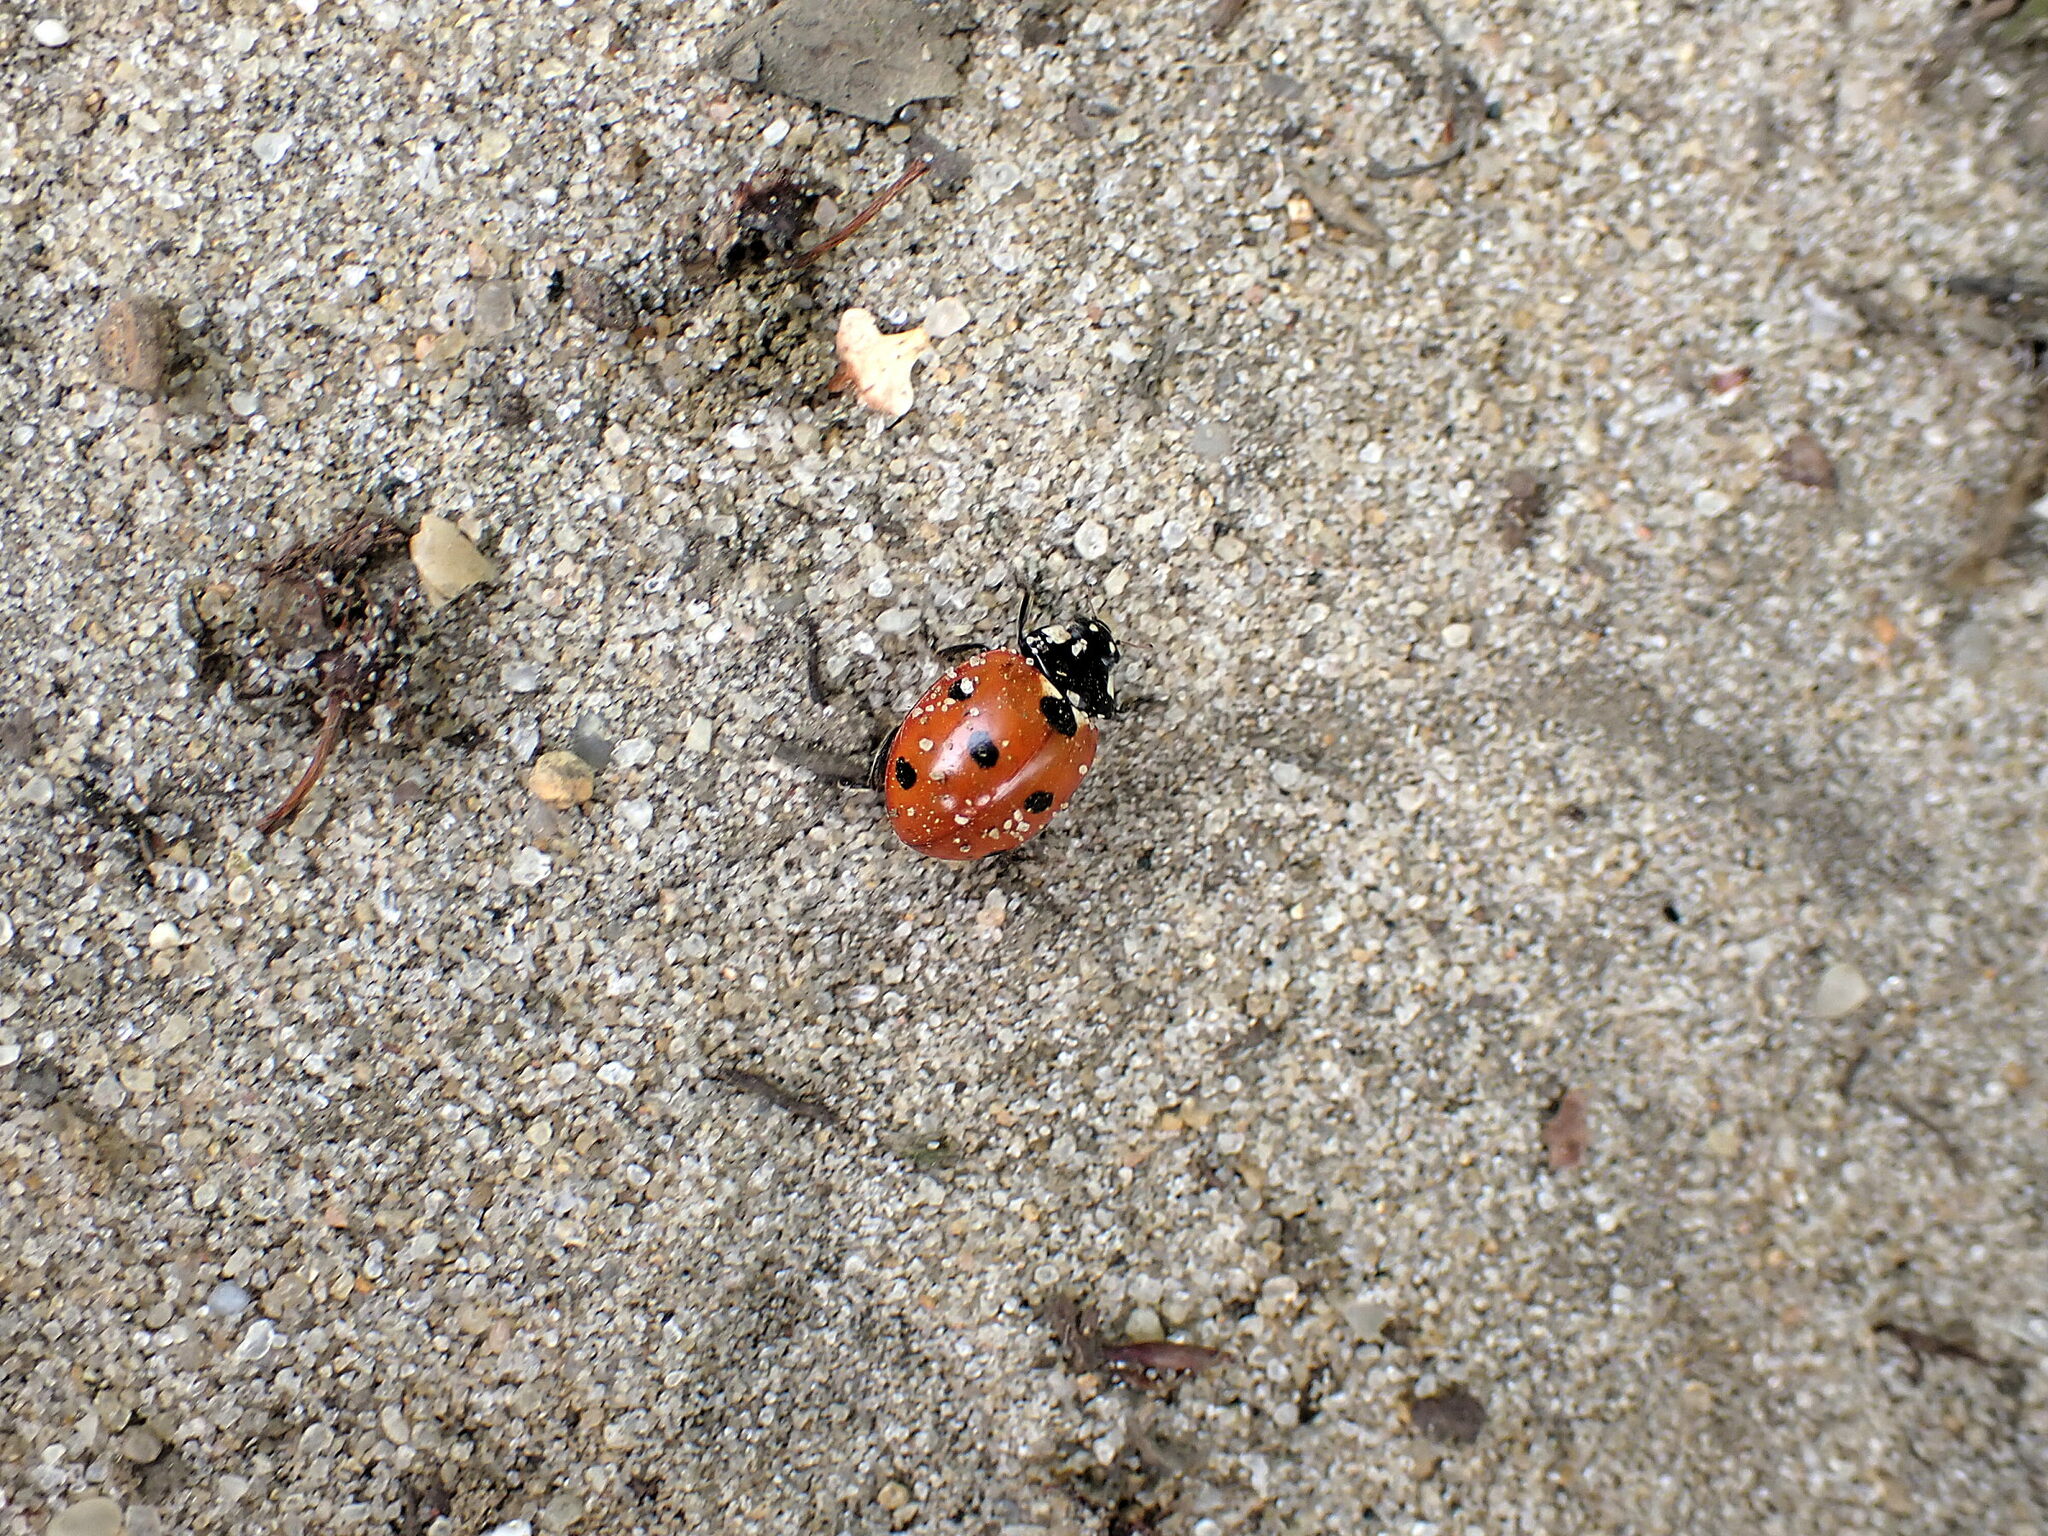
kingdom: Animalia
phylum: Arthropoda
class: Insecta
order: Coleoptera
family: Coccinellidae
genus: Coccinella
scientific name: Coccinella septempunctata
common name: Sevenspotted lady beetle
